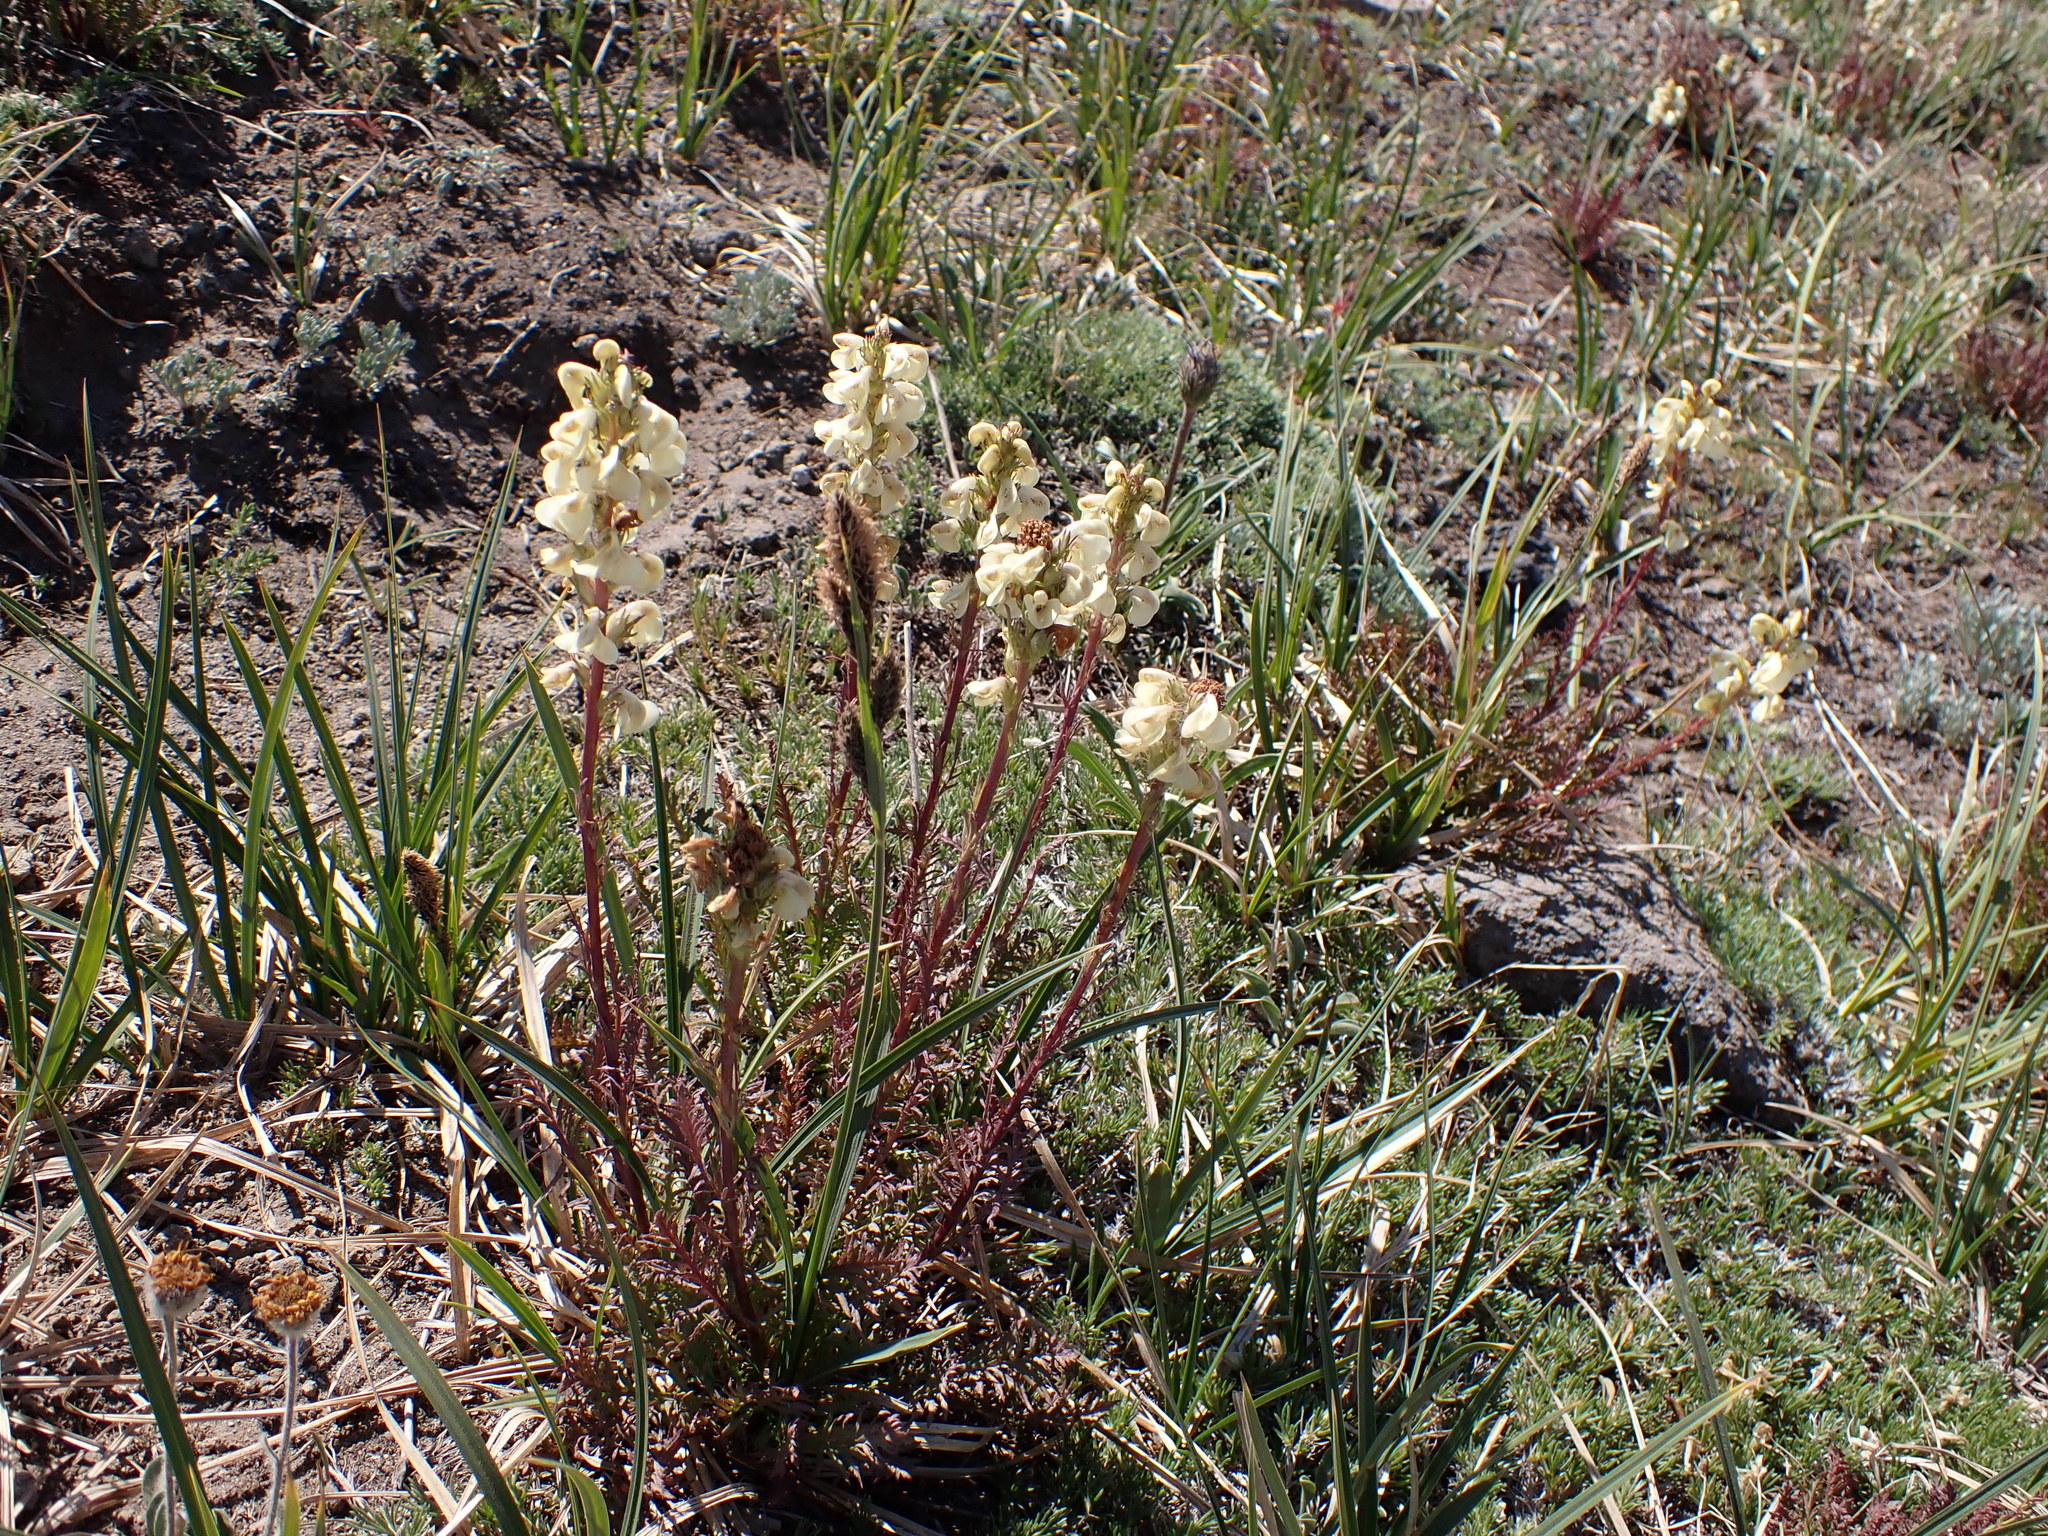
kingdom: Plantae
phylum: Tracheophyta
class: Magnoliopsida
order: Lamiales
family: Orobanchaceae
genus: Pedicularis
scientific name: Pedicularis contorta
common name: Coiled lousewort
